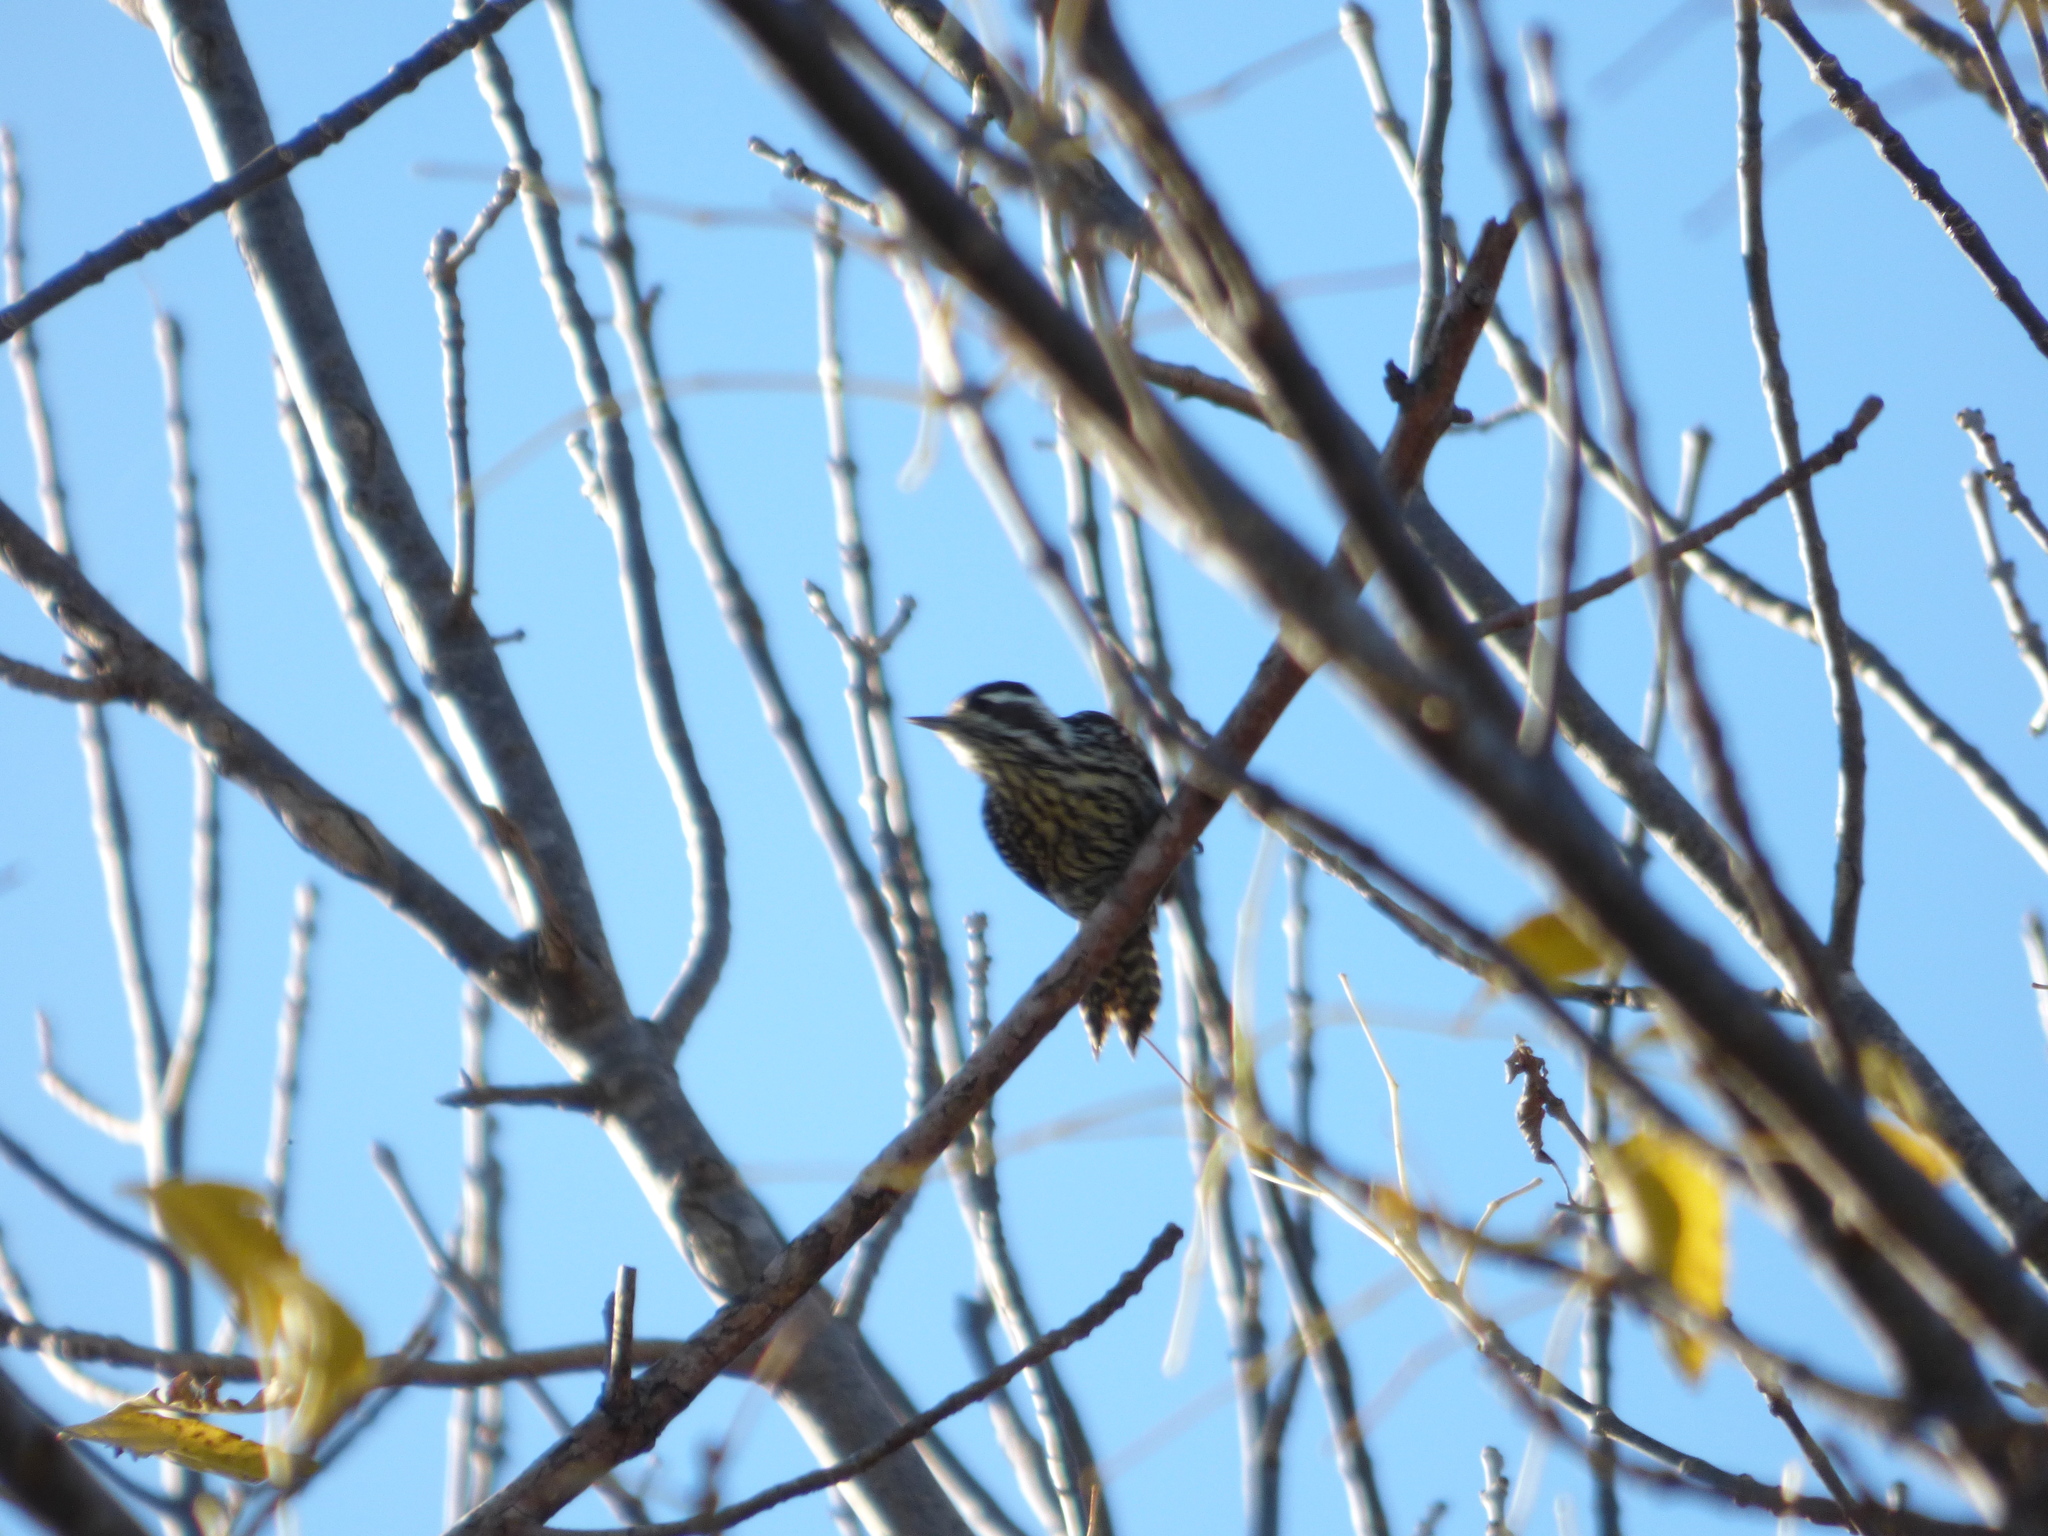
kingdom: Animalia
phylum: Chordata
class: Aves
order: Piciformes
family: Picidae
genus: Veniliornis
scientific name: Veniliornis mixtus
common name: Checkered woodpecker
